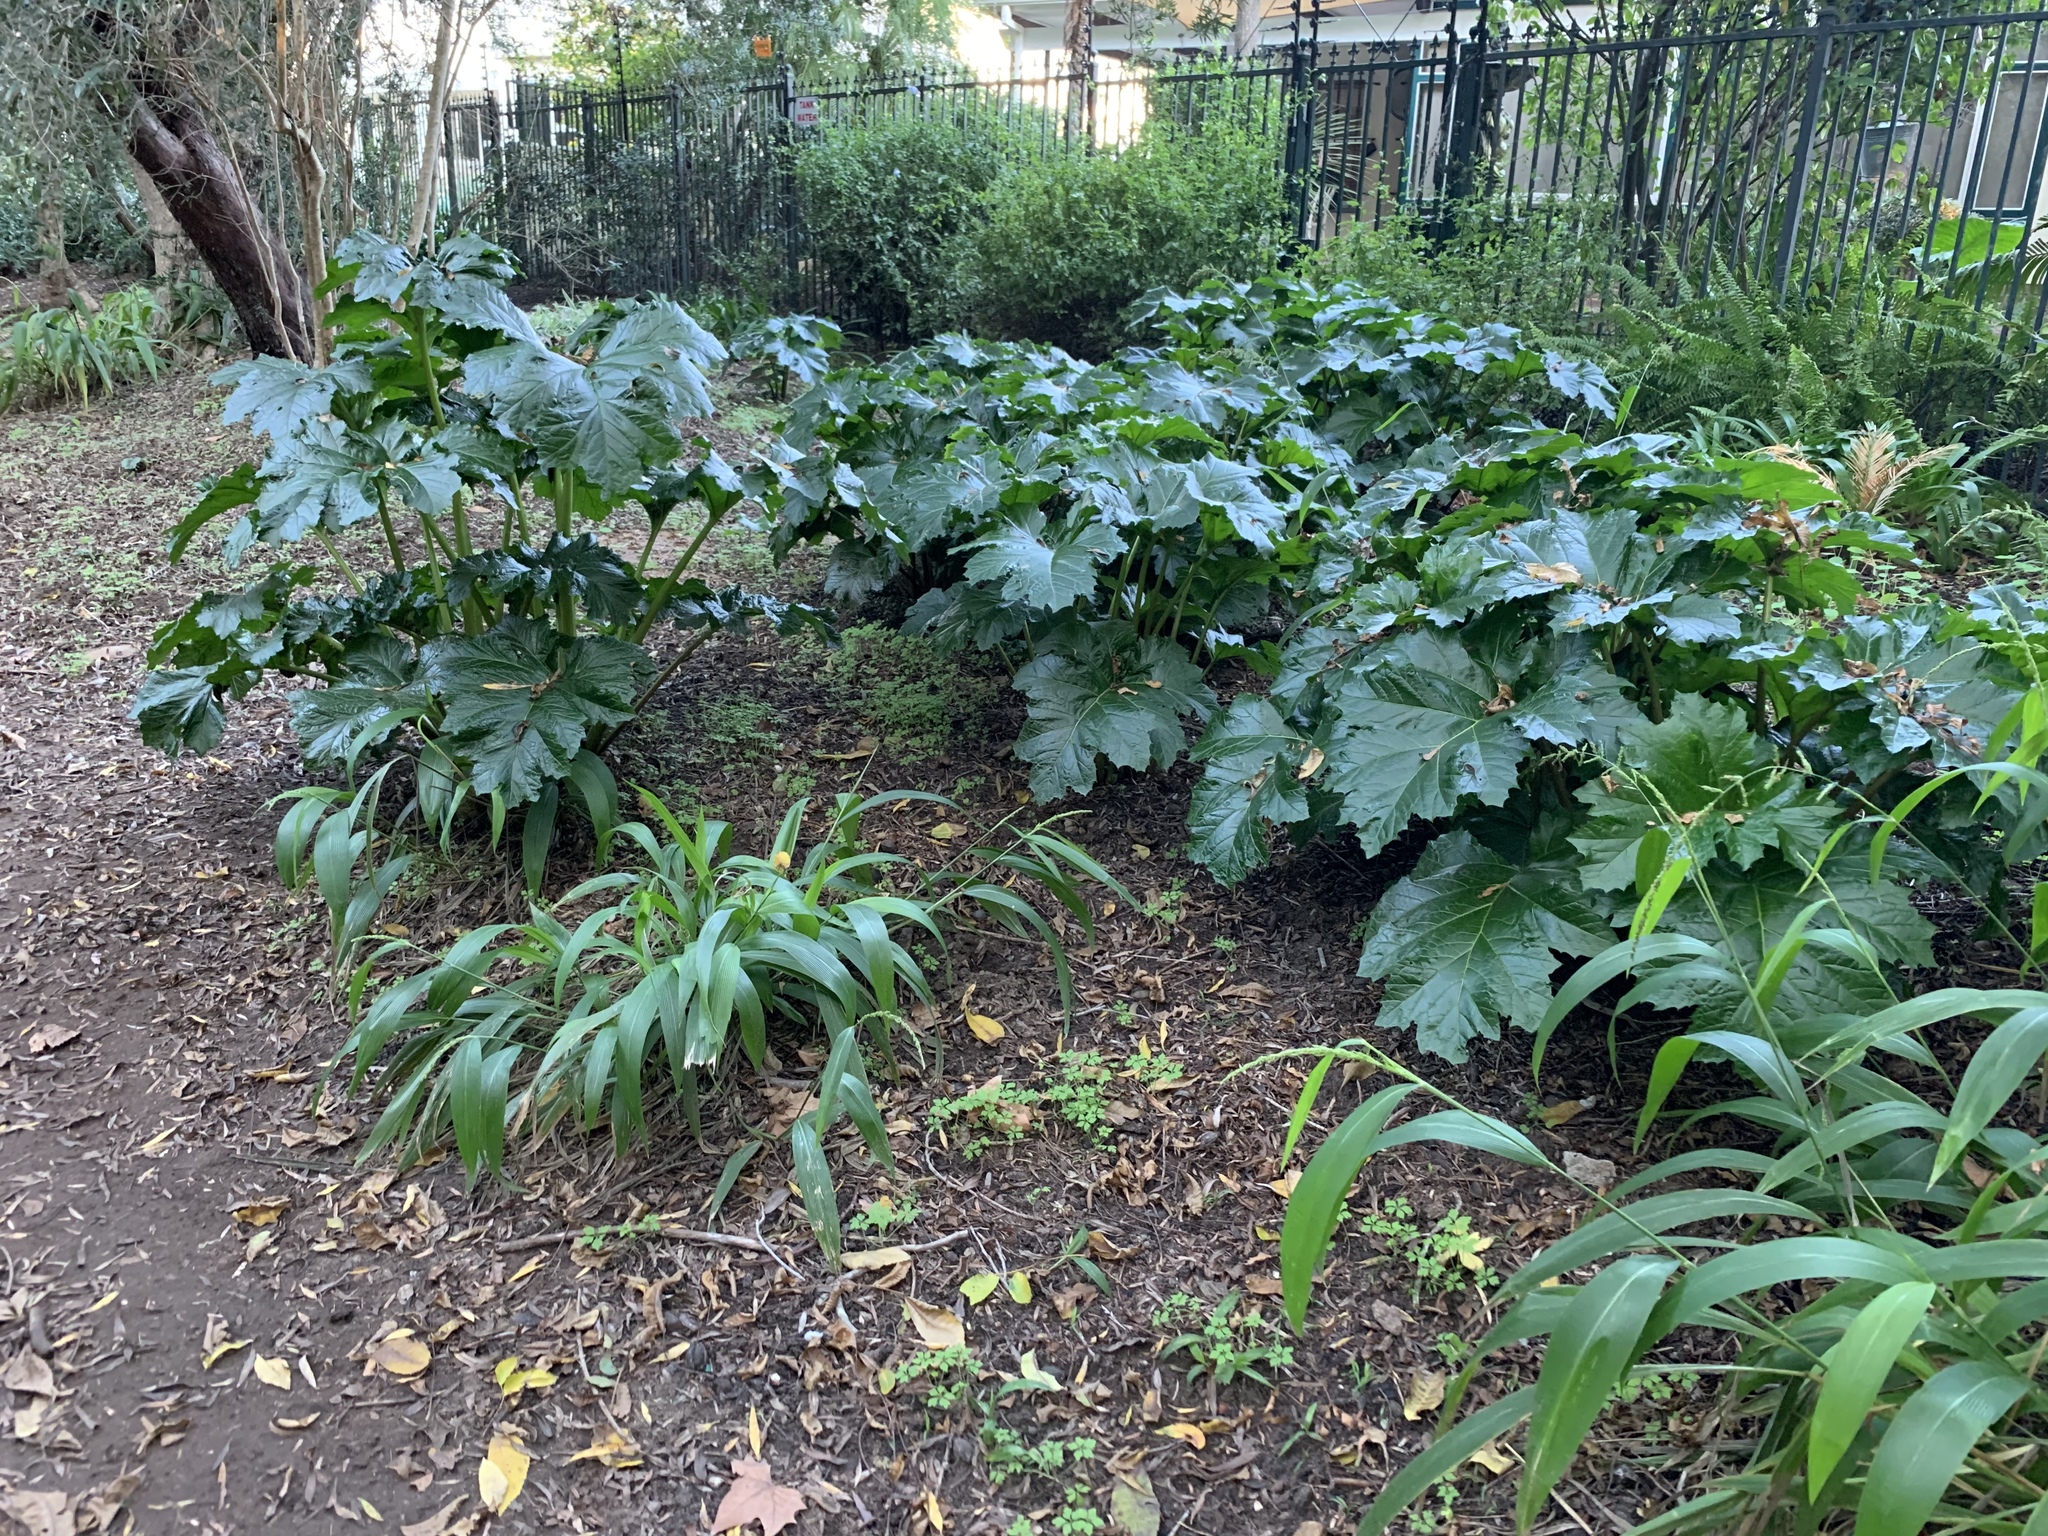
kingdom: Plantae
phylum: Tracheophyta
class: Magnoliopsida
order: Lamiales
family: Acanthaceae
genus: Acanthus
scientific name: Acanthus mollis
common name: Bear's-breech
